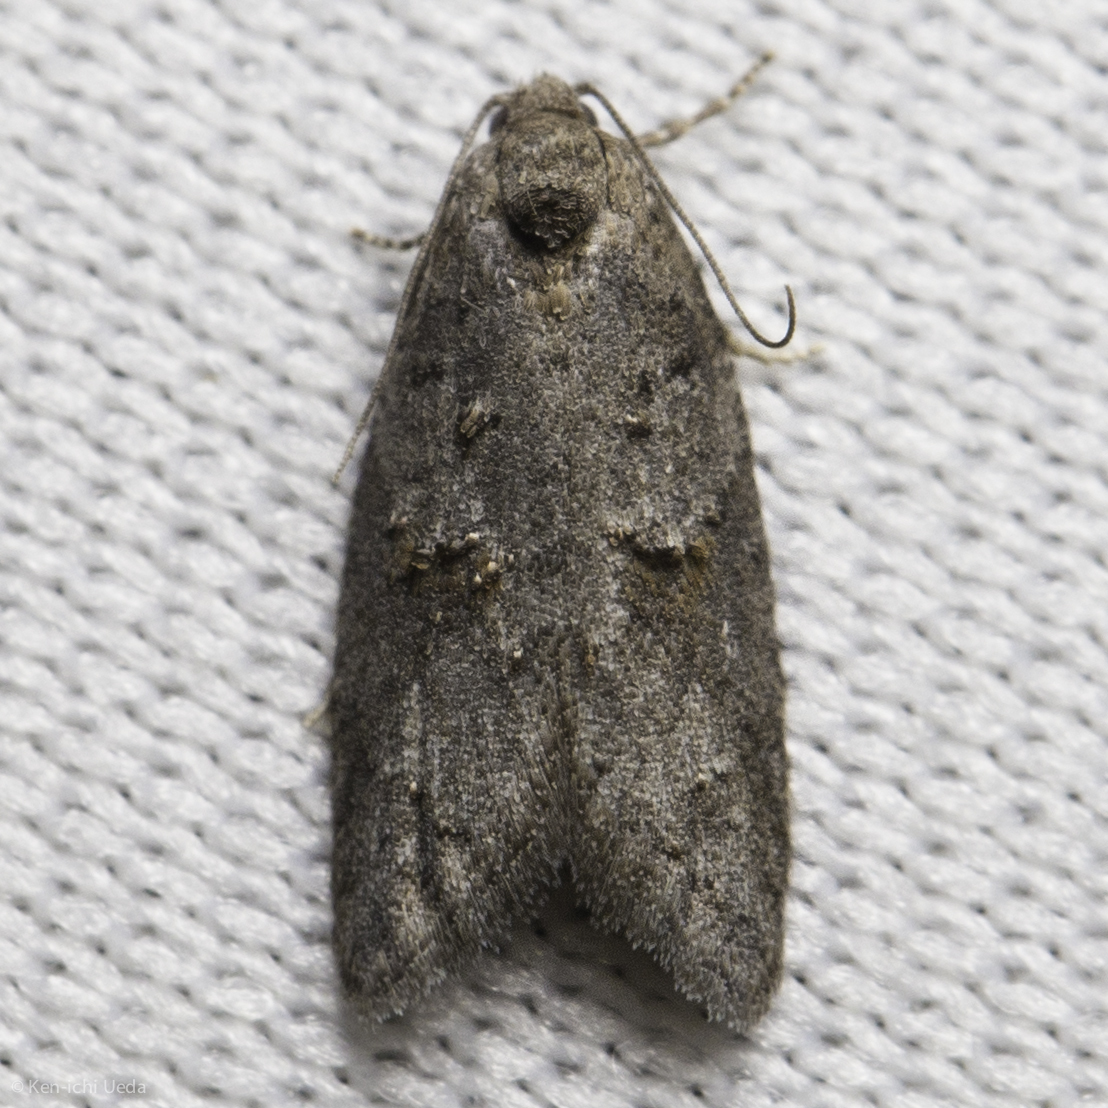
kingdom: Animalia
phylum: Arthropoda
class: Insecta
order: Lepidoptera
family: Tortricidae
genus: Decodes
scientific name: Decodes fragariana
